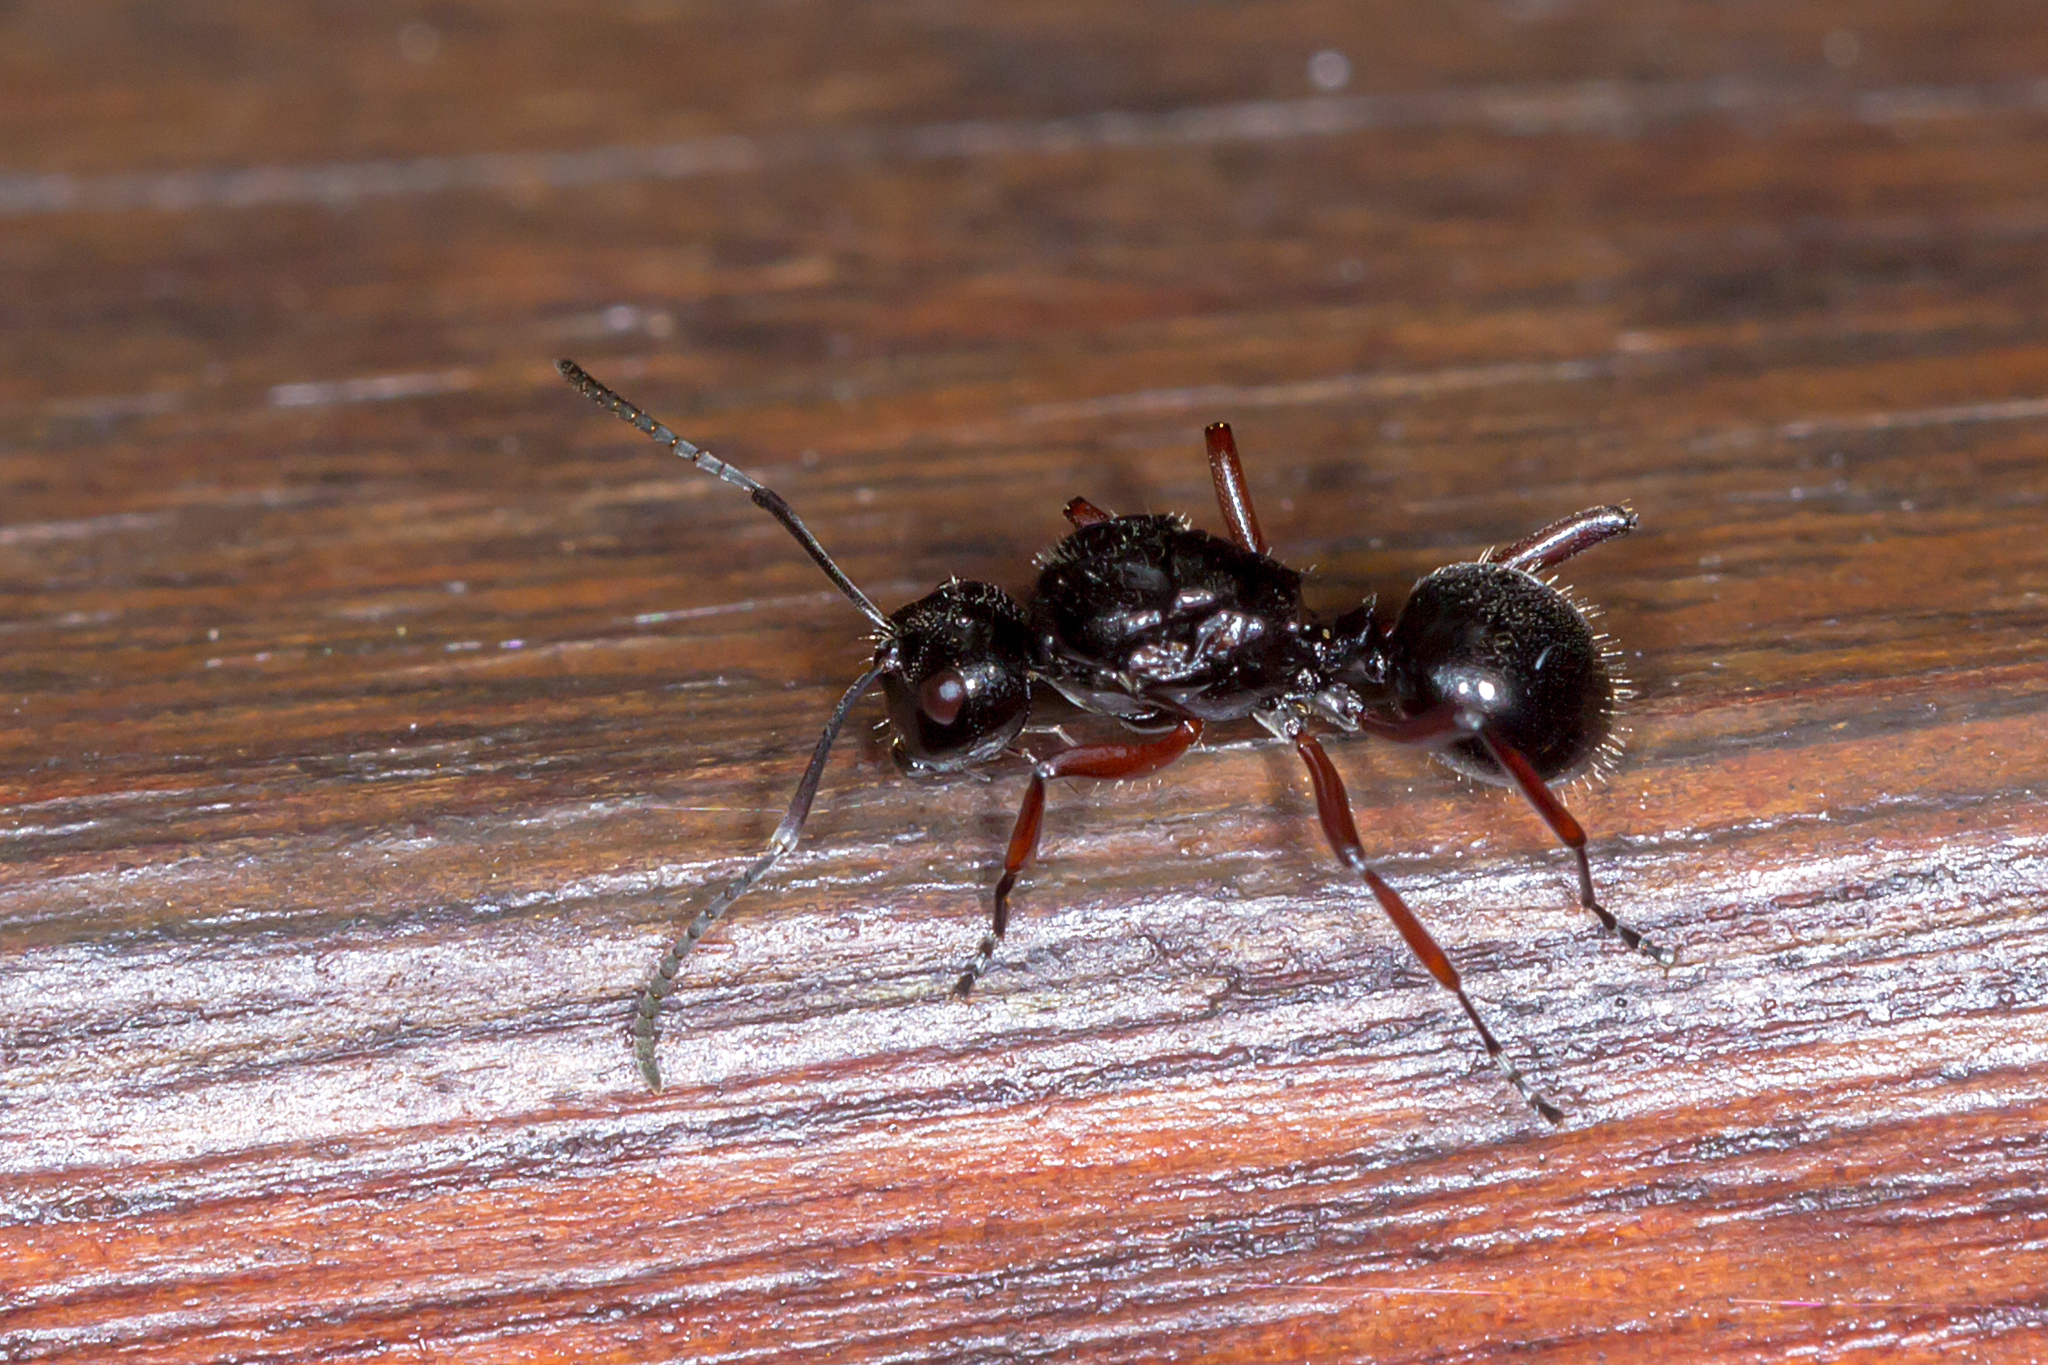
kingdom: Animalia
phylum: Arthropoda
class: Insecta
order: Hymenoptera
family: Formicidae
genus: Polyrhachis
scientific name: Polyrhachis monteithi
